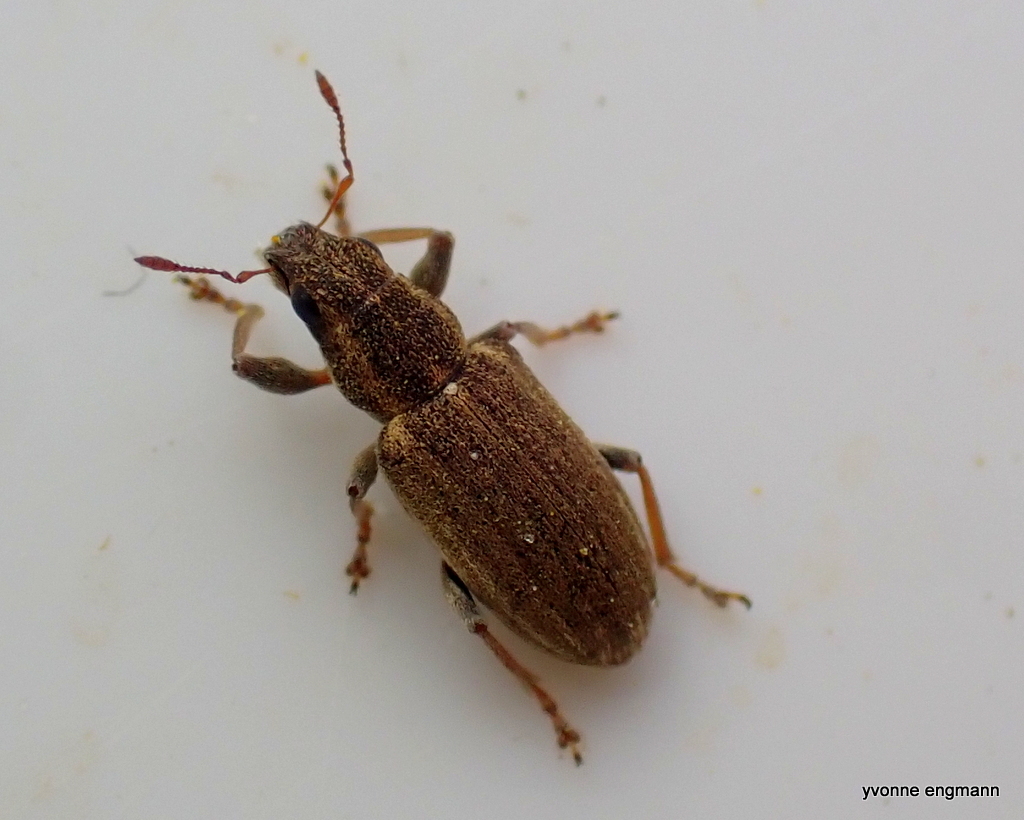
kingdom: Animalia
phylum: Arthropoda
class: Insecta
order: Coleoptera
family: Curculionidae
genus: Sitona
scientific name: Sitona lineatus
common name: Weevil
